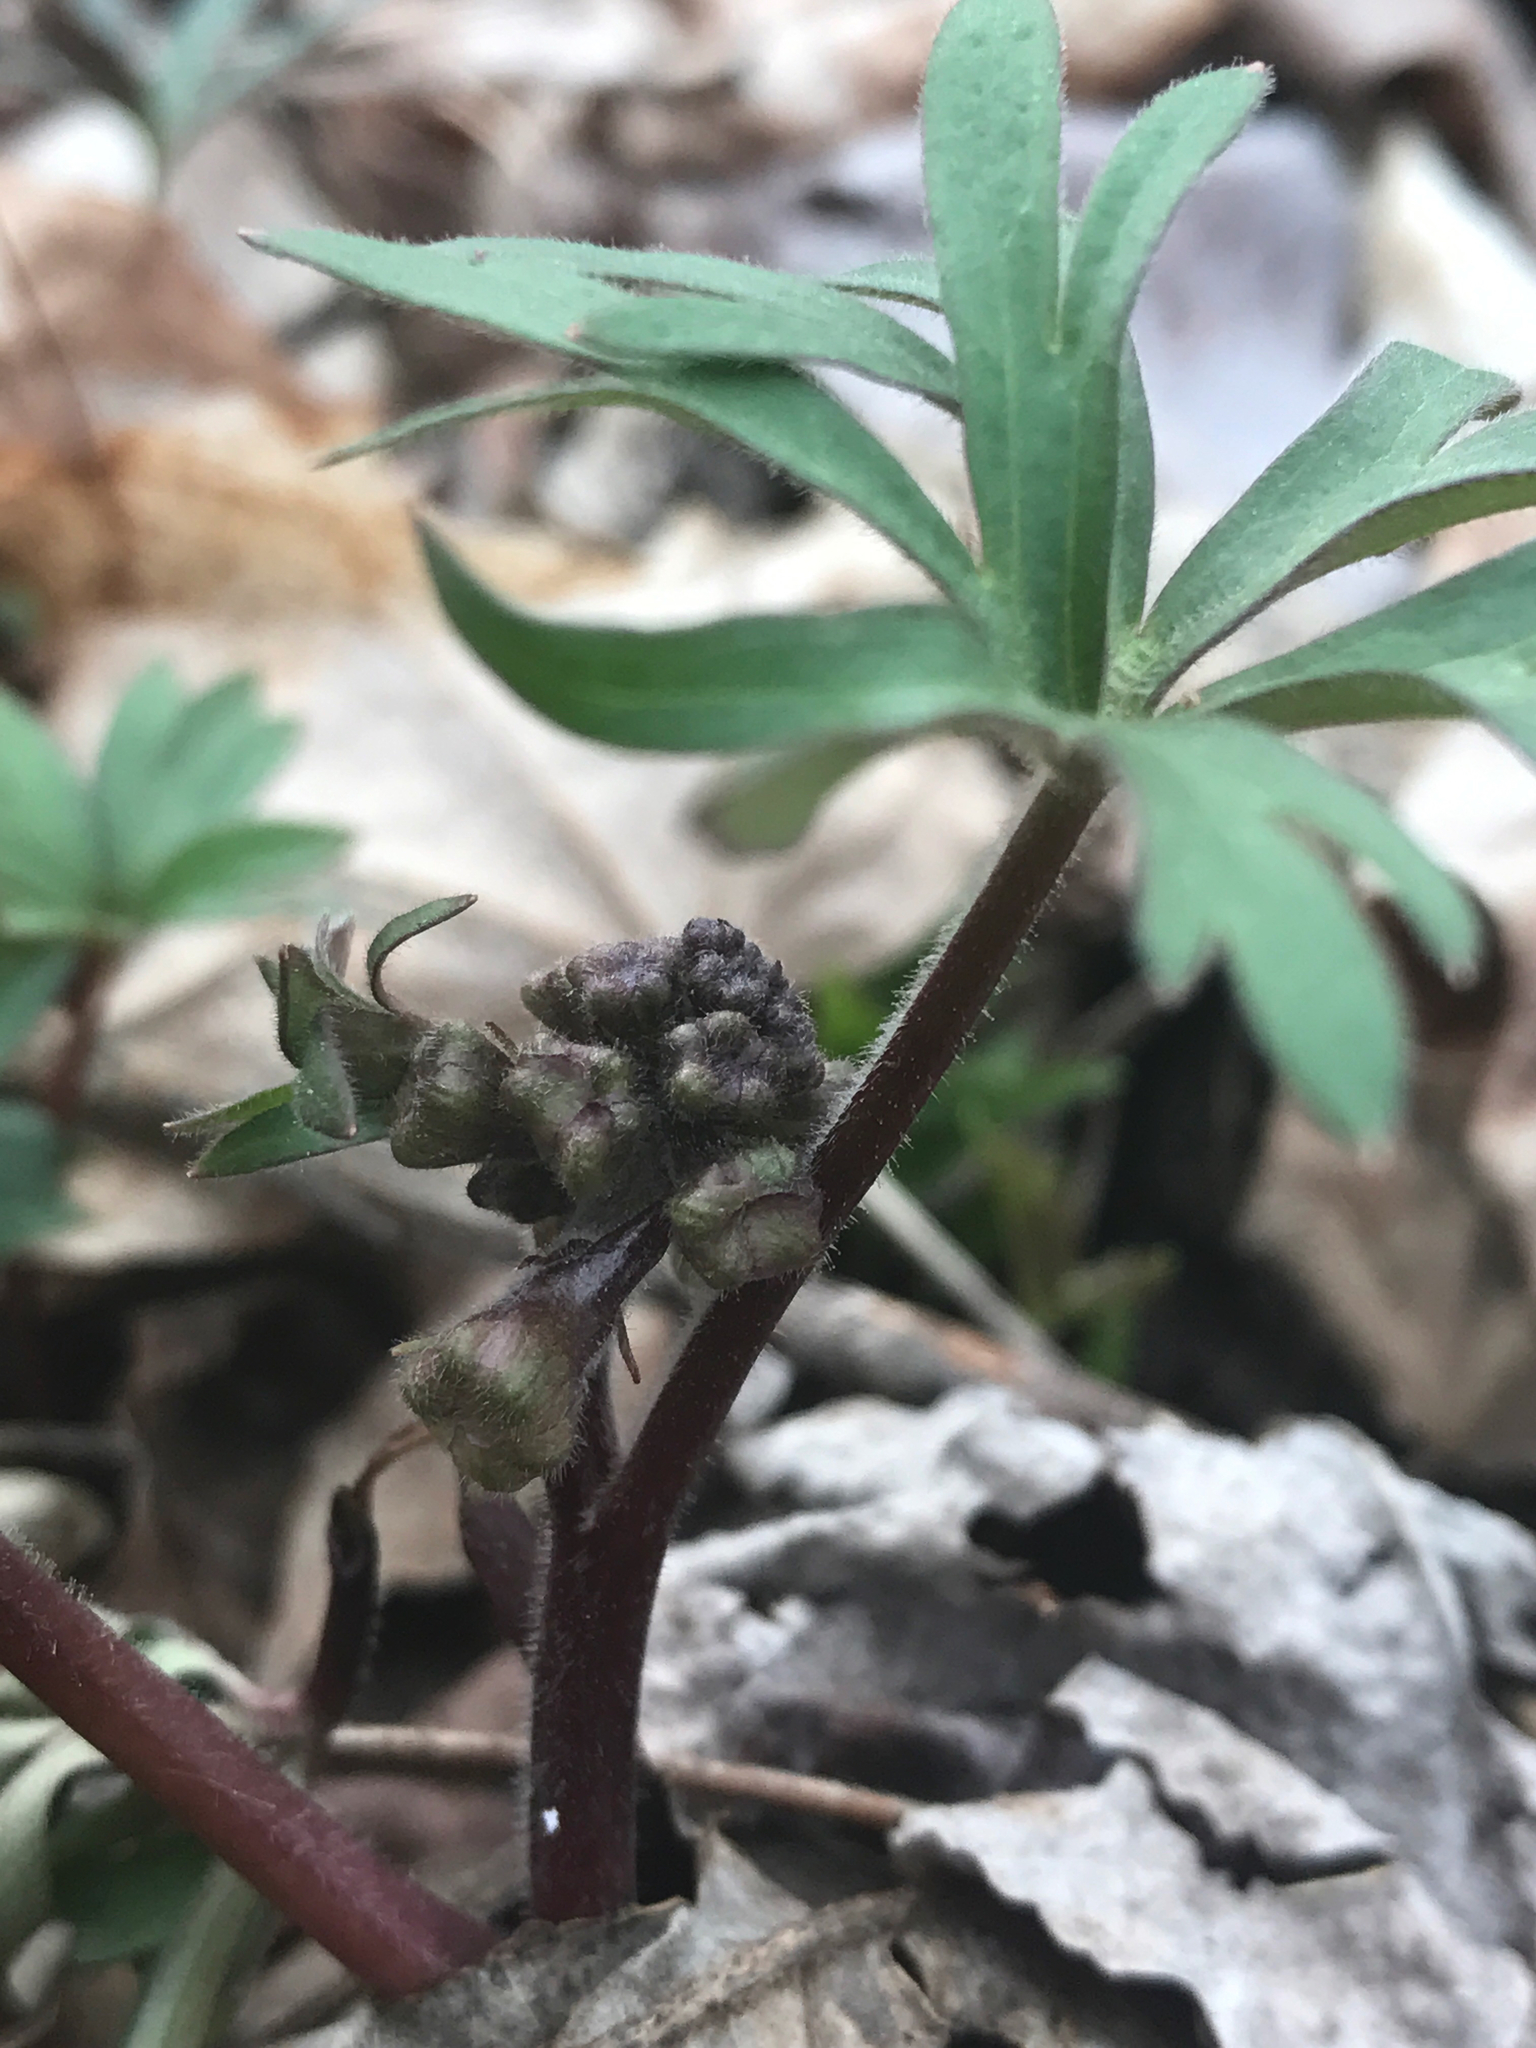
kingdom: Plantae
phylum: Tracheophyta
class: Magnoliopsida
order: Ranunculales
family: Ranunculaceae
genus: Delphinium
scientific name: Delphinium tricorne
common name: Dwarf larkspur
